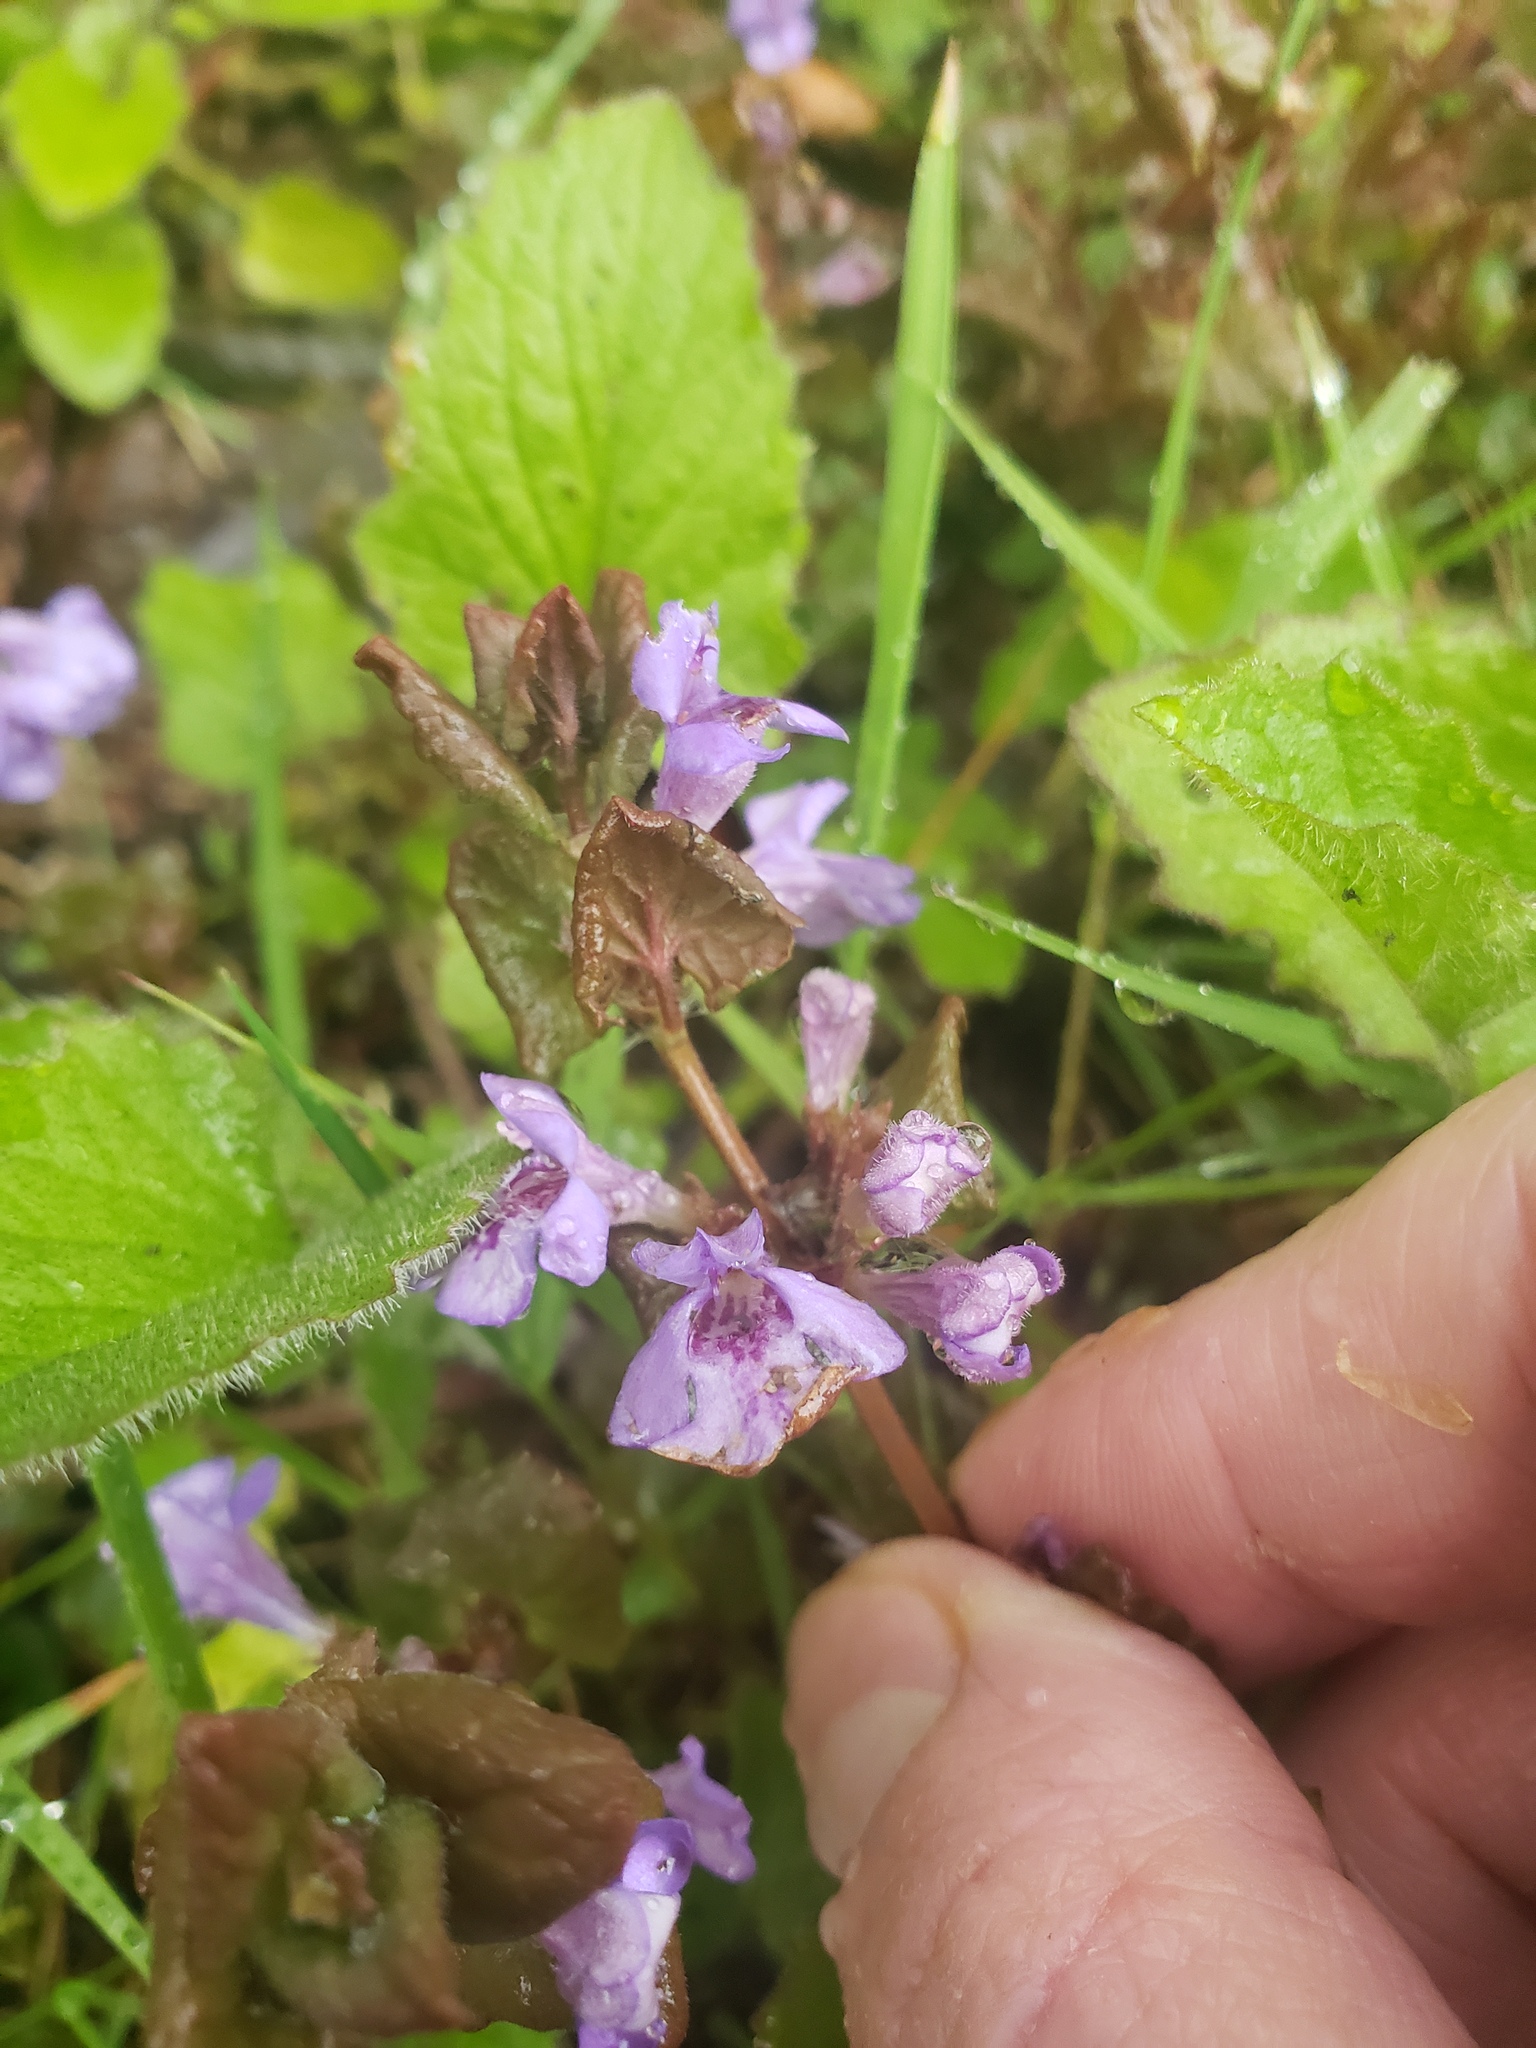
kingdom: Plantae
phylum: Tracheophyta
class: Magnoliopsida
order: Lamiales
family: Lamiaceae
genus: Glechoma
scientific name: Glechoma hederacea
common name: Ground ivy
